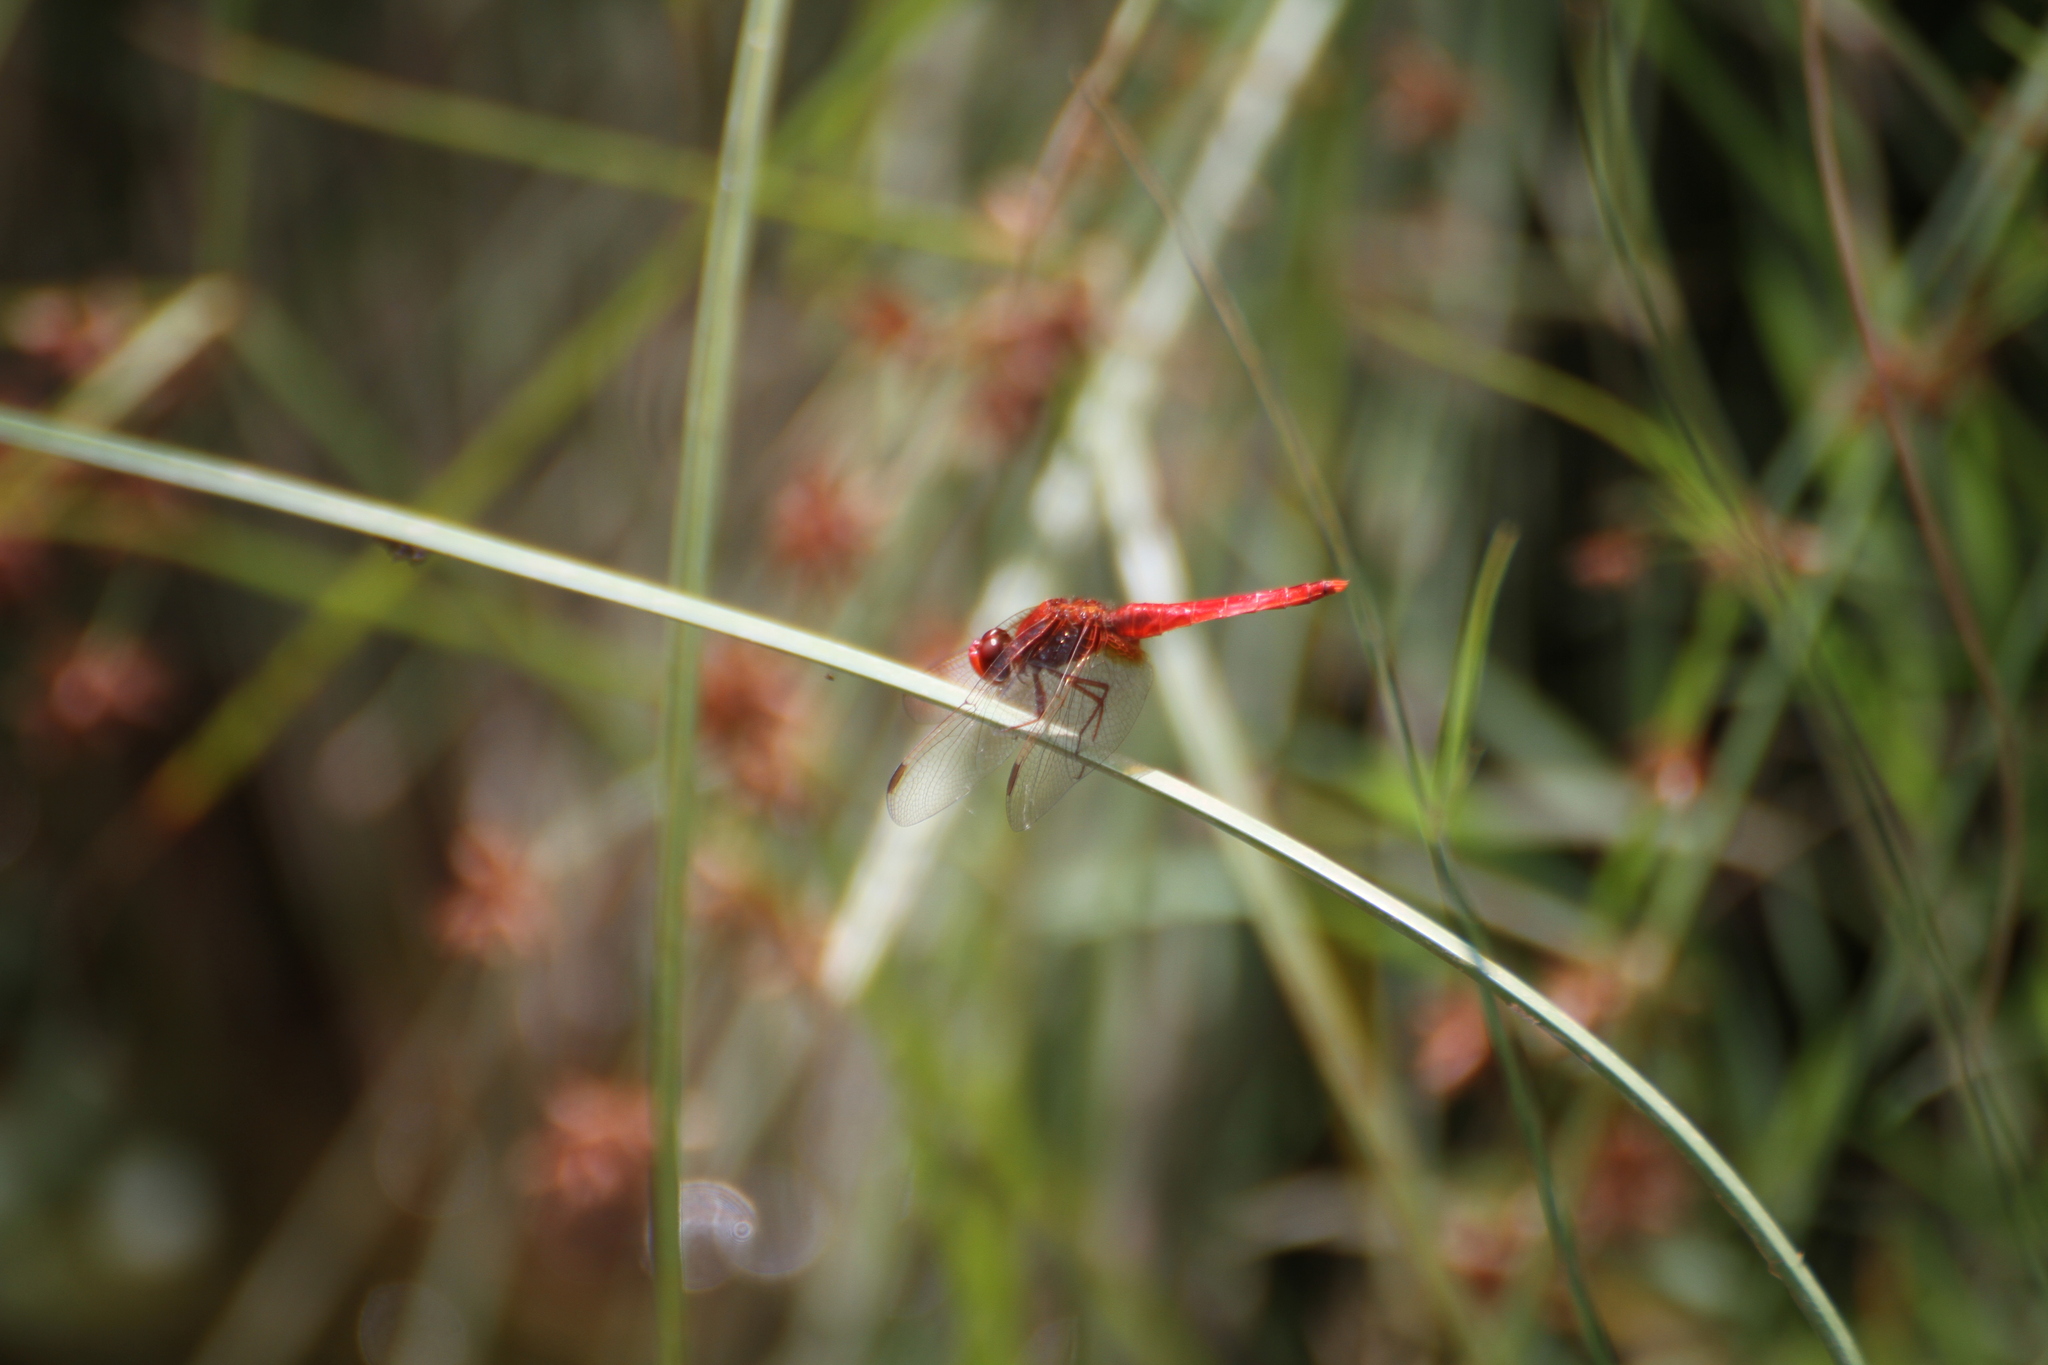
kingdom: Animalia
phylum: Arthropoda
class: Insecta
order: Odonata
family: Libellulidae
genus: Crocothemis
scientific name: Crocothemis erythraea
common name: Scarlet dragonfly
